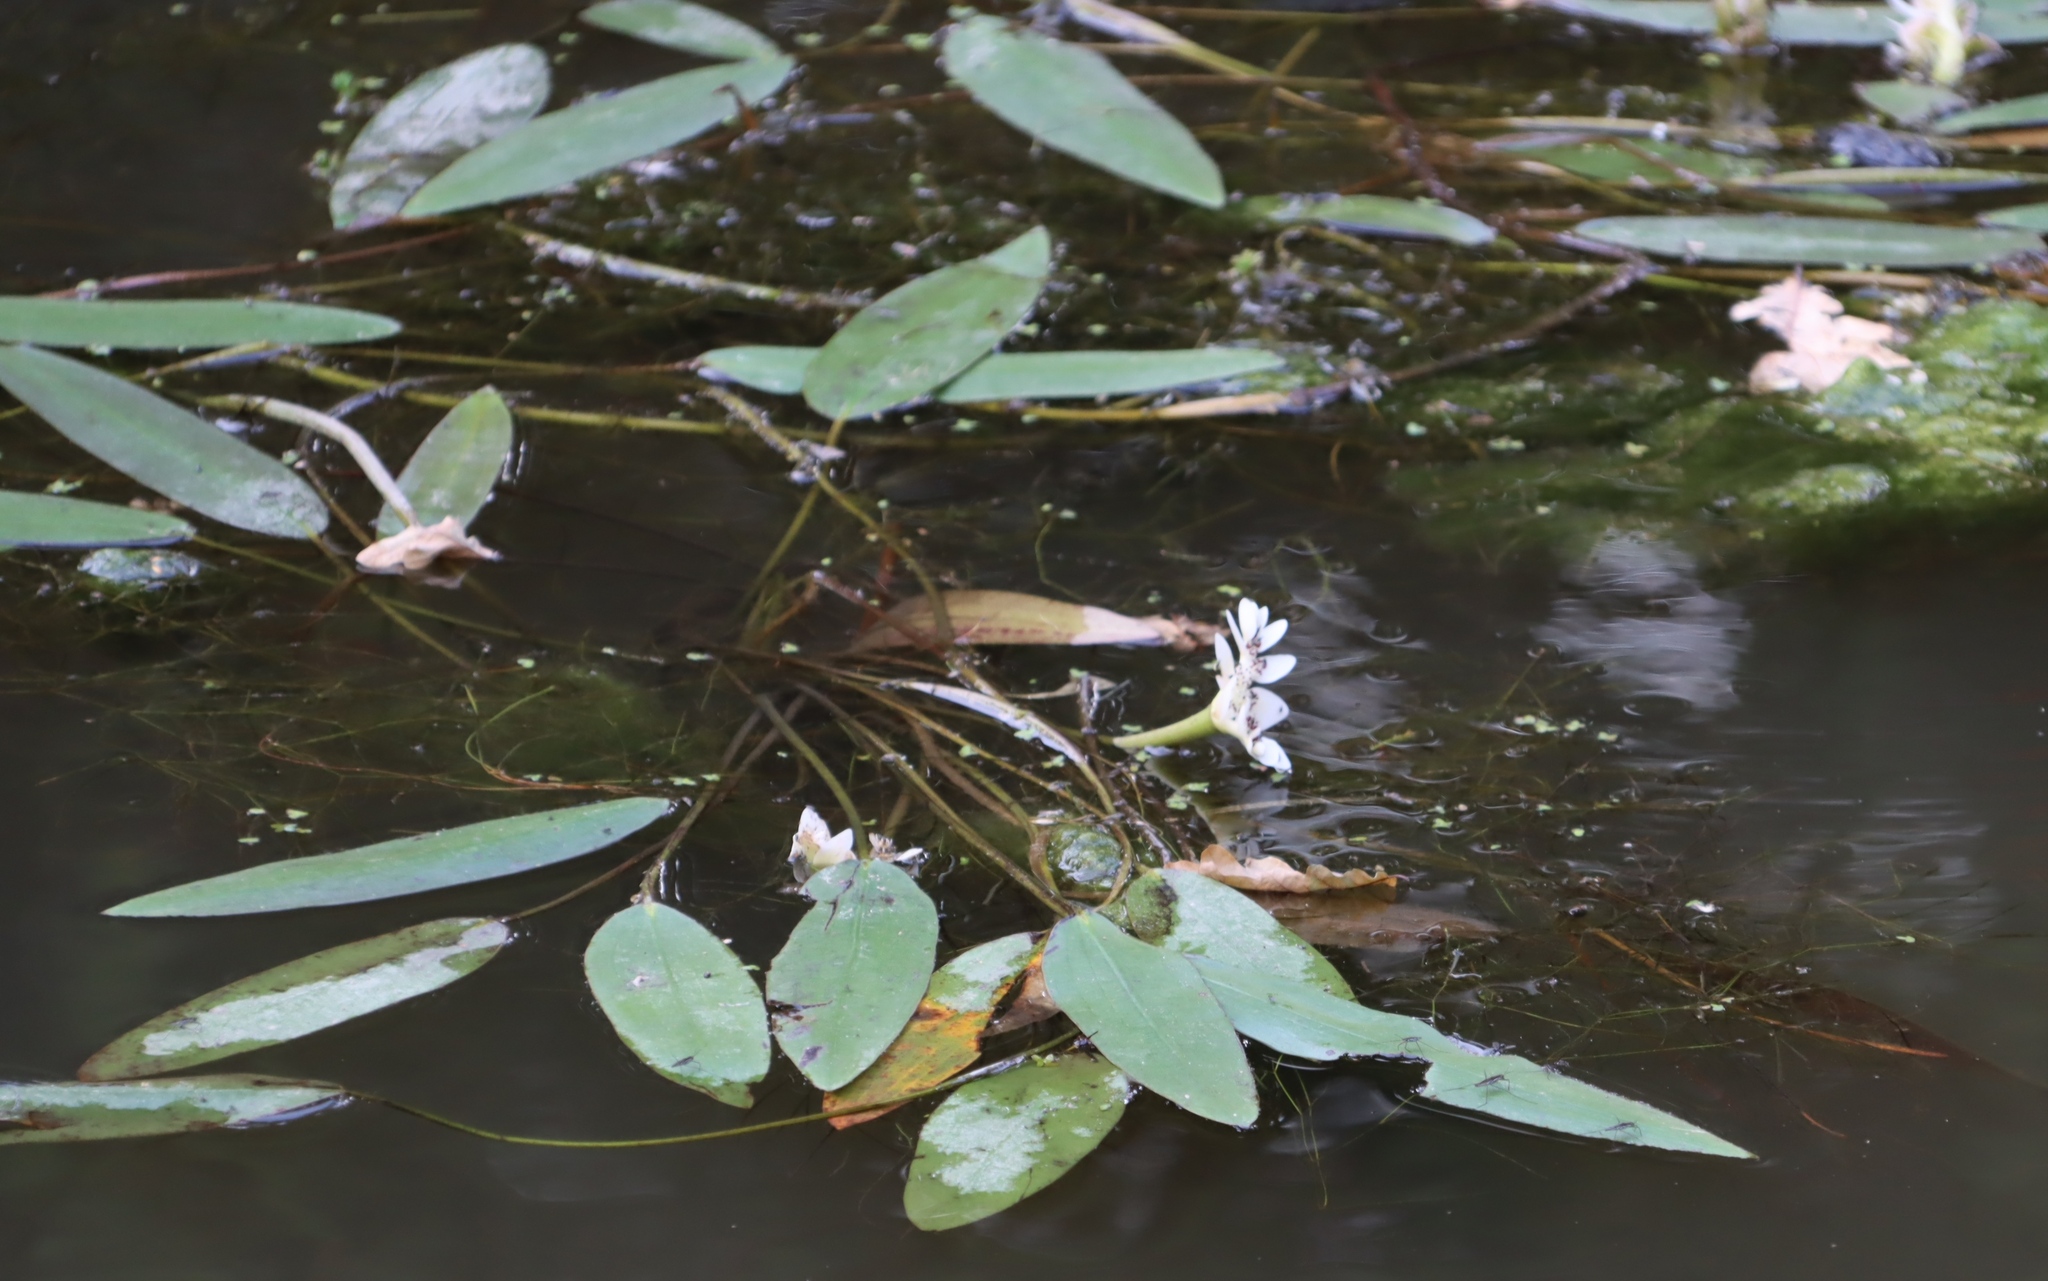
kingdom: Plantae
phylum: Tracheophyta
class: Liliopsida
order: Alismatales
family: Aponogetonaceae
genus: Aponogeton
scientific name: Aponogeton distachyos
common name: Cape-pondweed
